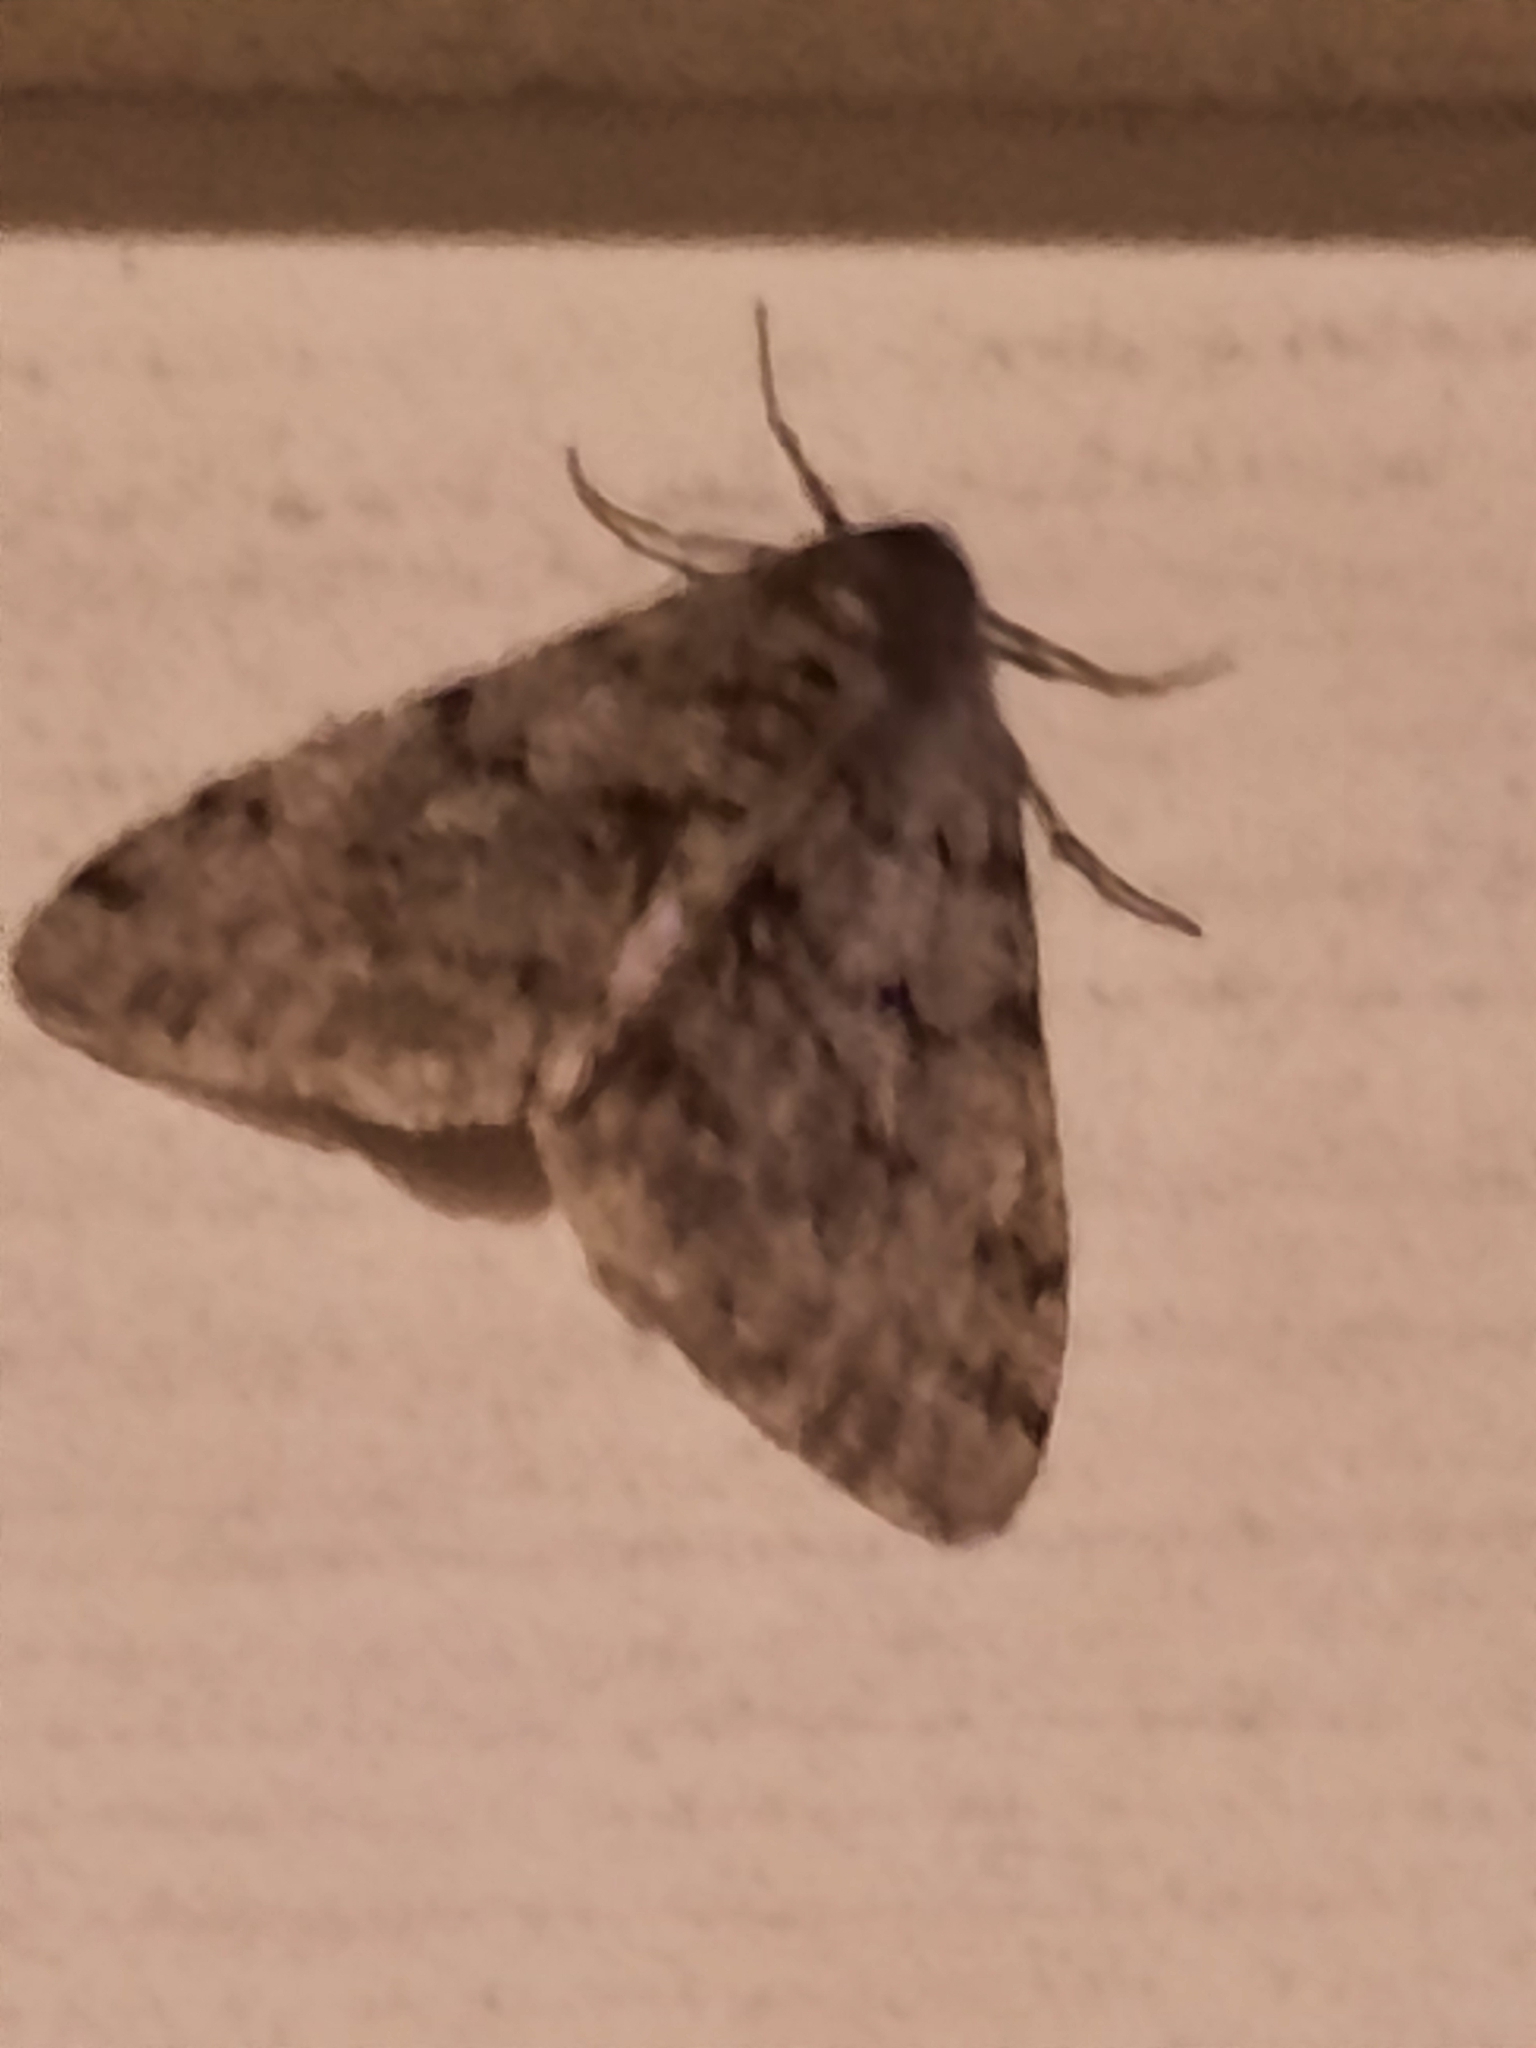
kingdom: Animalia
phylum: Arthropoda
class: Insecta
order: Lepidoptera
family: Geometridae
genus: Phigalia
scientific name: Phigalia strigataria
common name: Small phigalia
